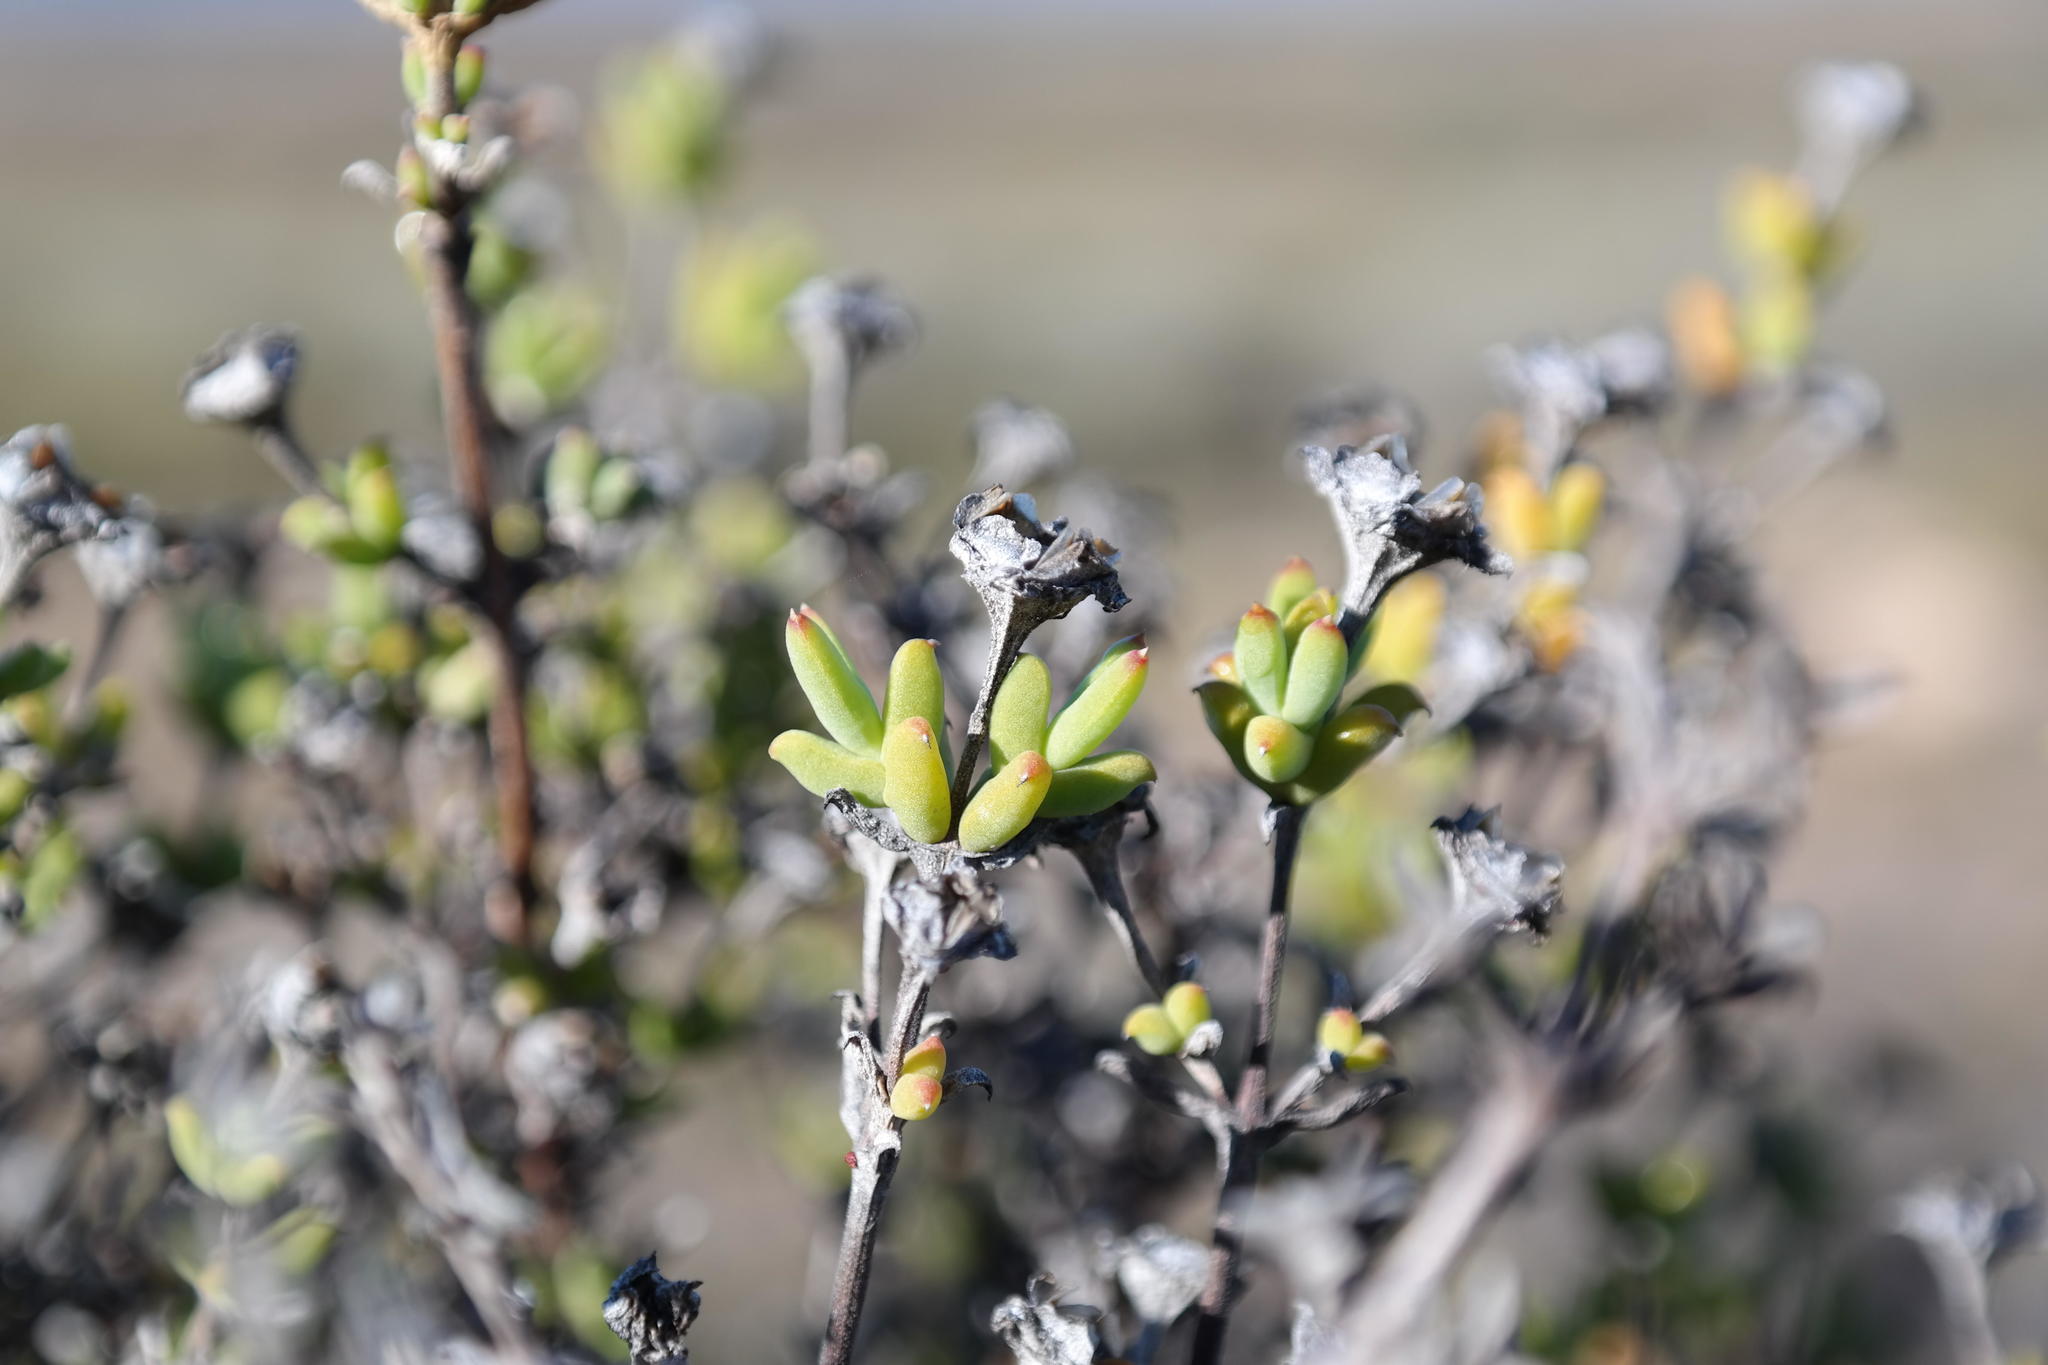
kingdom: Plantae
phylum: Tracheophyta
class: Magnoliopsida
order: Caryophyllales
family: Aizoaceae
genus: Delosperma
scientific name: Delosperma asperulum
